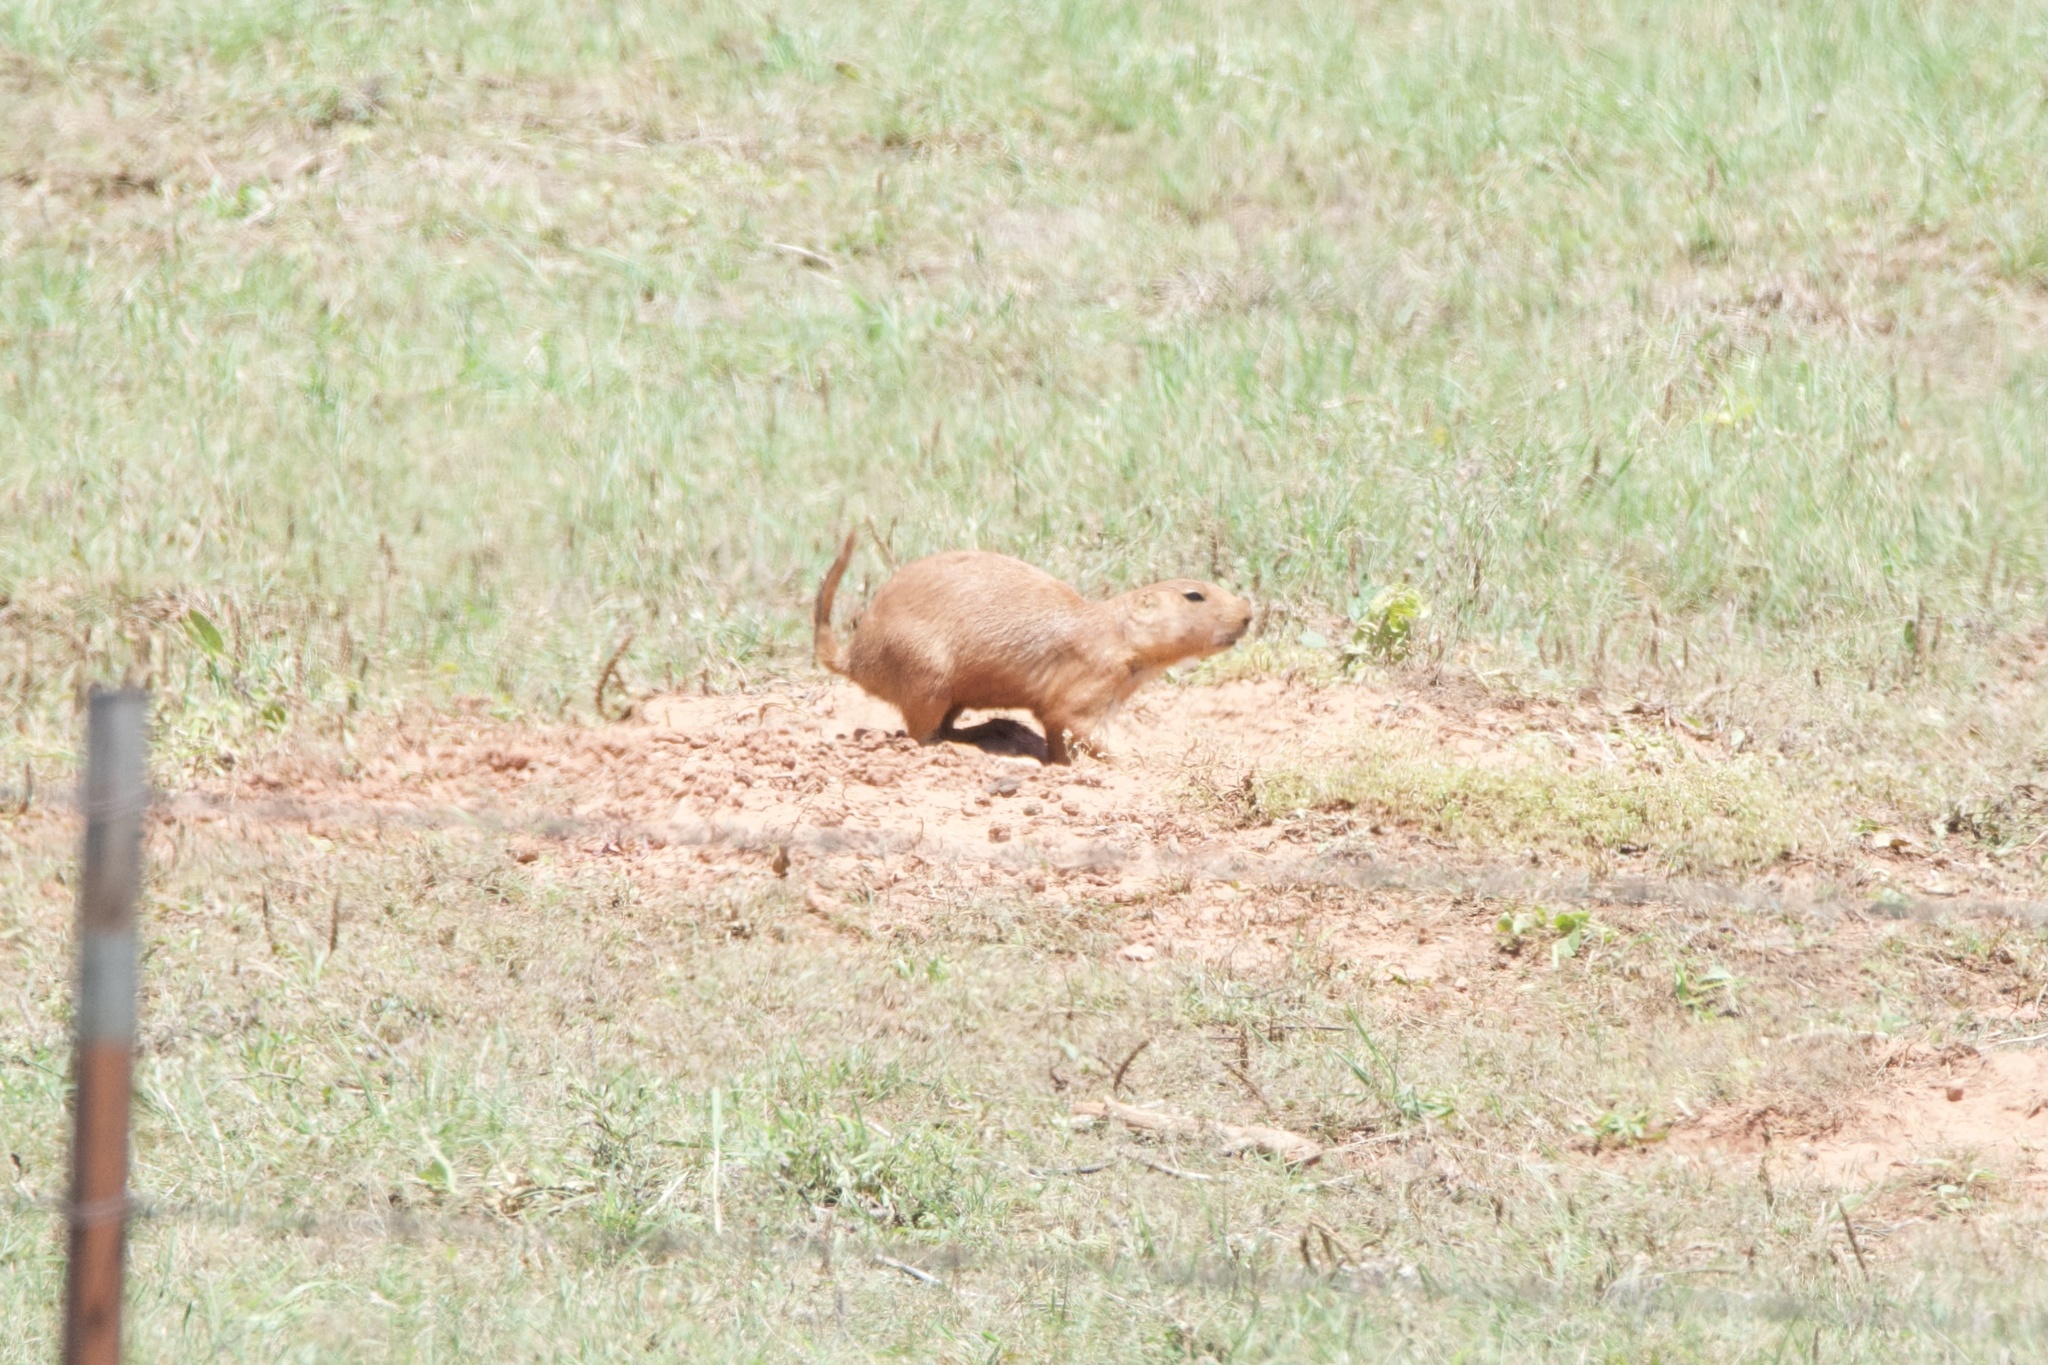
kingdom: Animalia
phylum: Chordata
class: Mammalia
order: Rodentia
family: Sciuridae
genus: Cynomys
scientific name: Cynomys ludovicianus
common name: Black-tailed prairie dog
